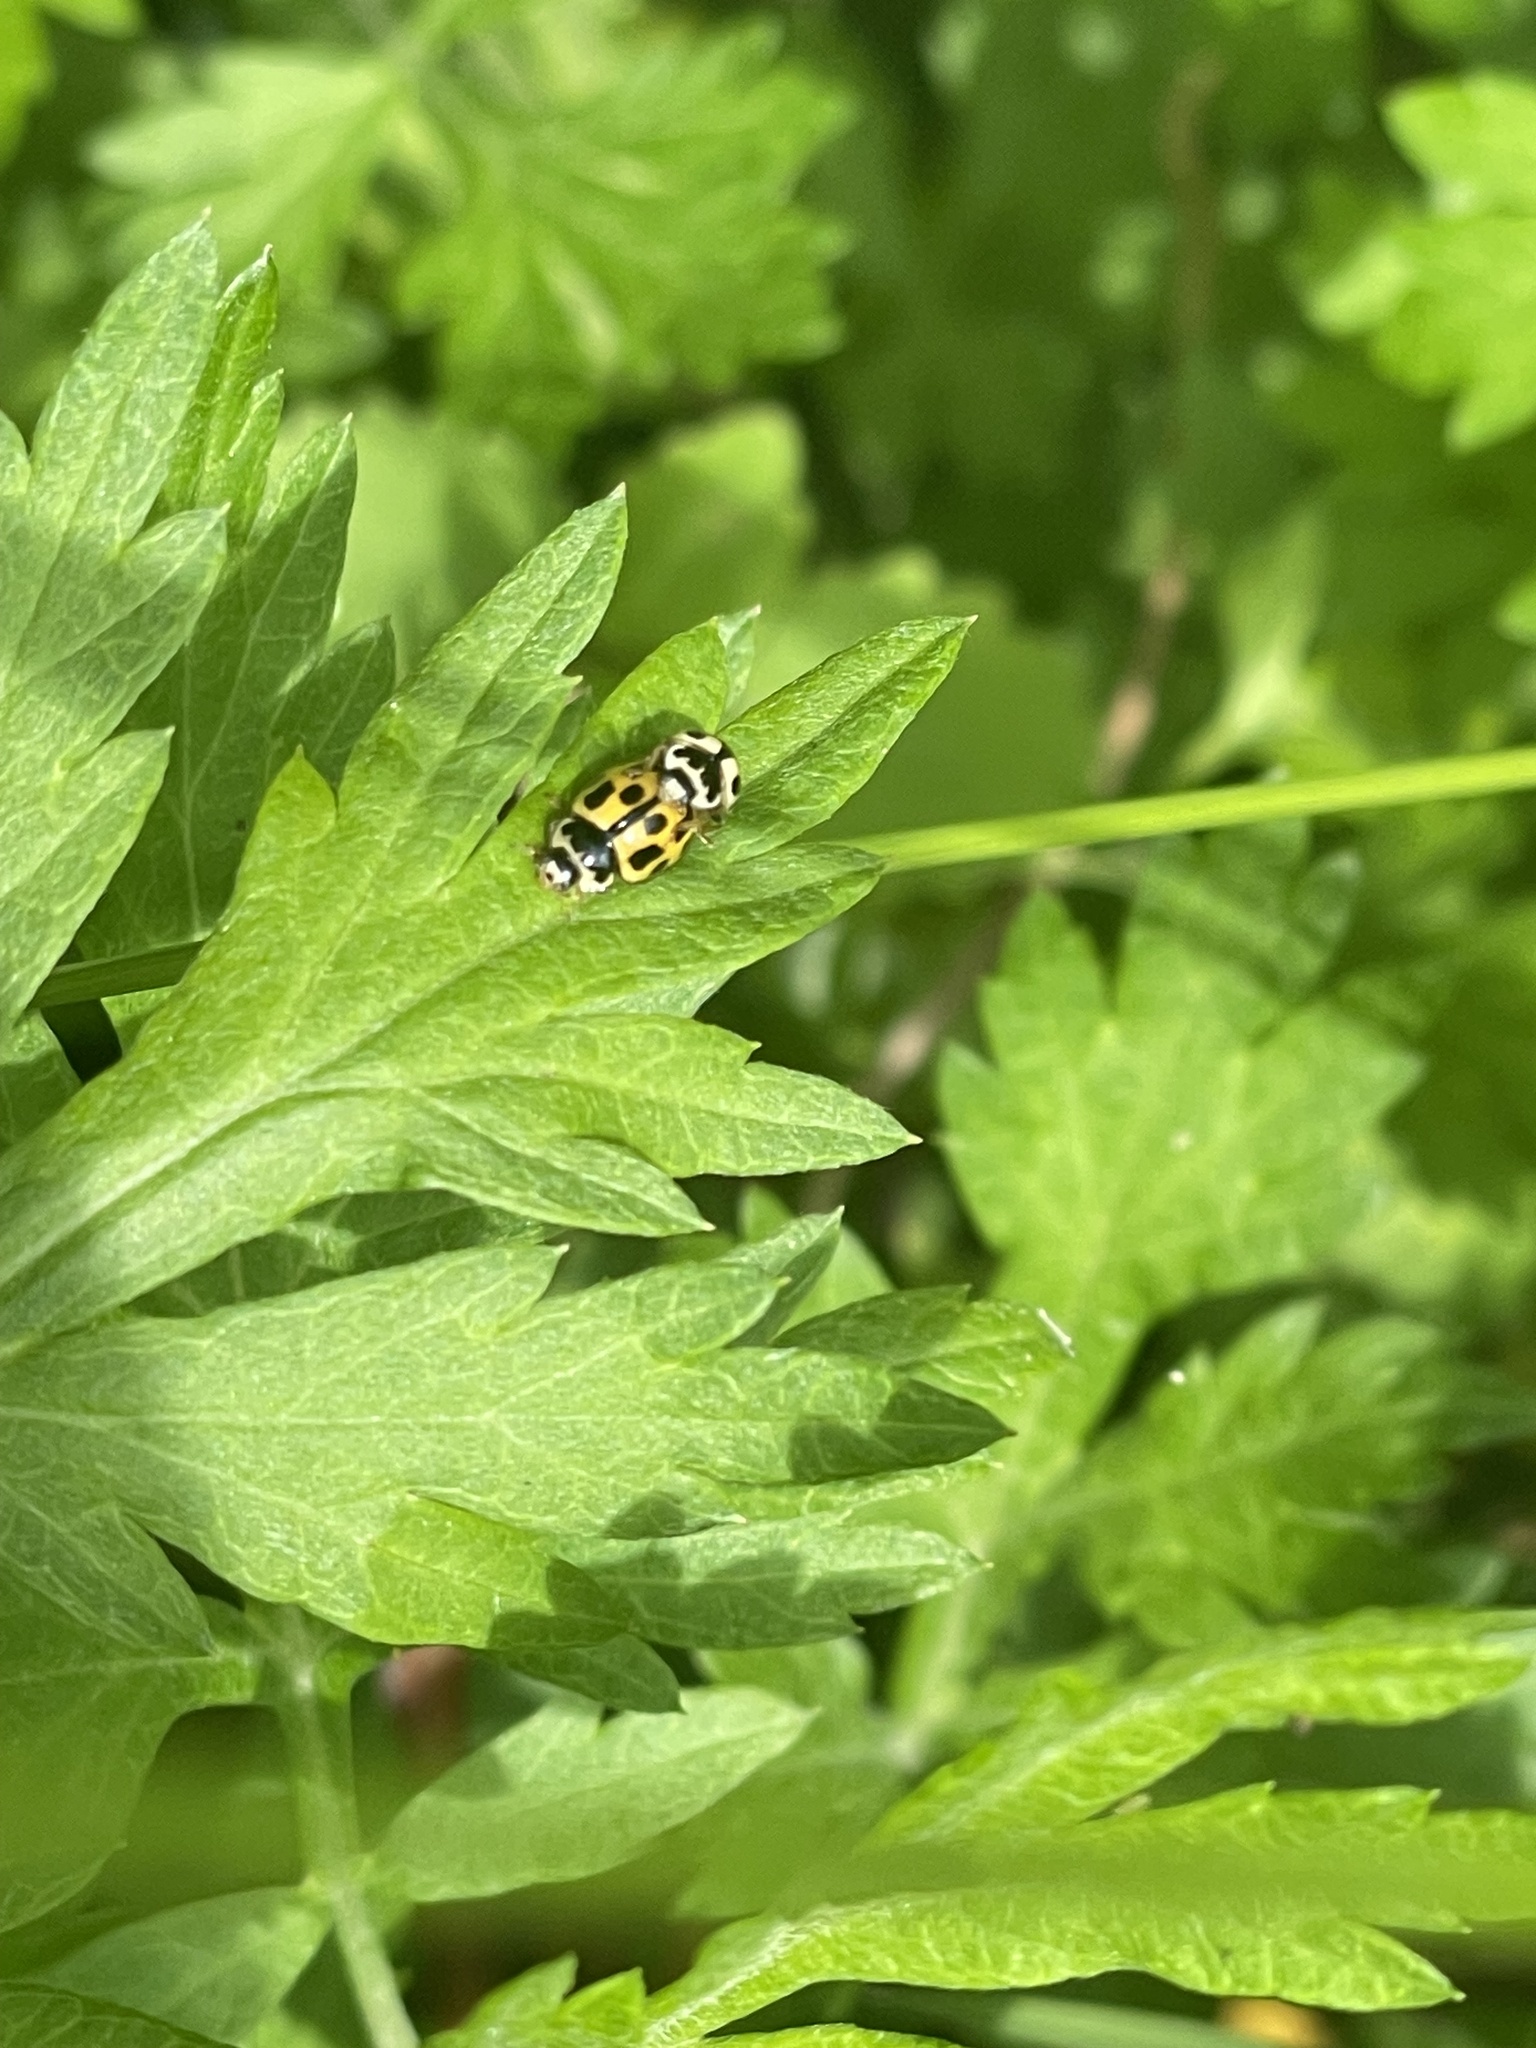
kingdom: Animalia
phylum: Arthropoda
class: Insecta
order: Coleoptera
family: Coccinellidae
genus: Propylaea
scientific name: Propylaea quatuordecimpunctata
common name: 14-spotted ladybird beetle
